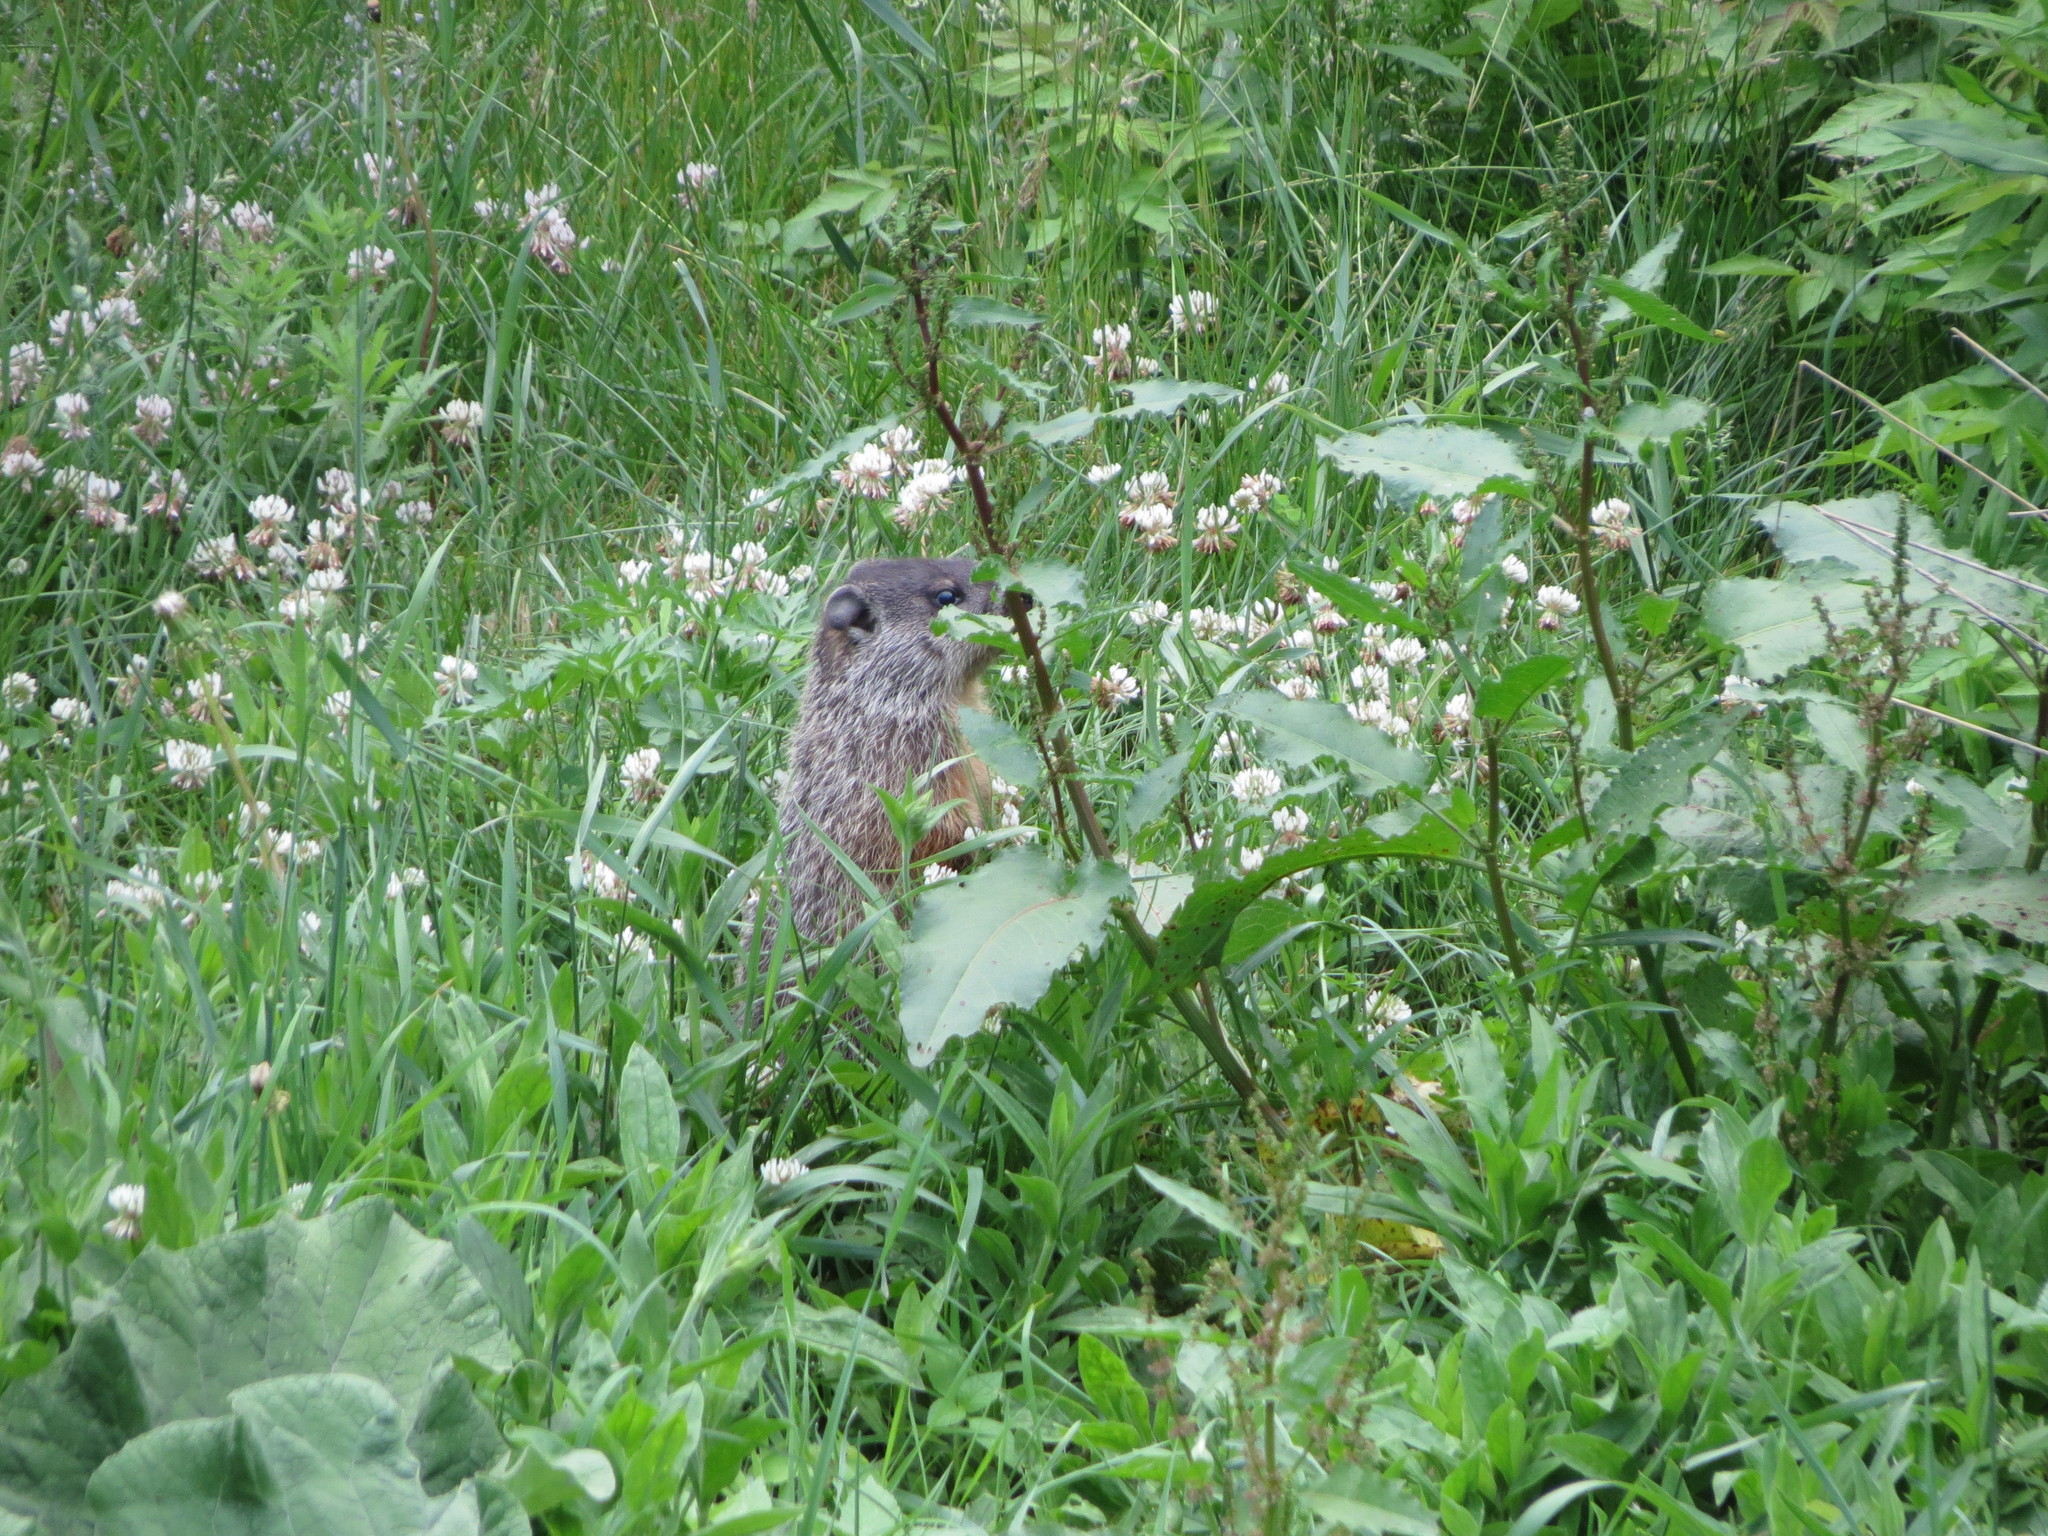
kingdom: Animalia
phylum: Chordata
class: Mammalia
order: Rodentia
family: Sciuridae
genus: Marmota
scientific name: Marmota monax
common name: Groundhog
